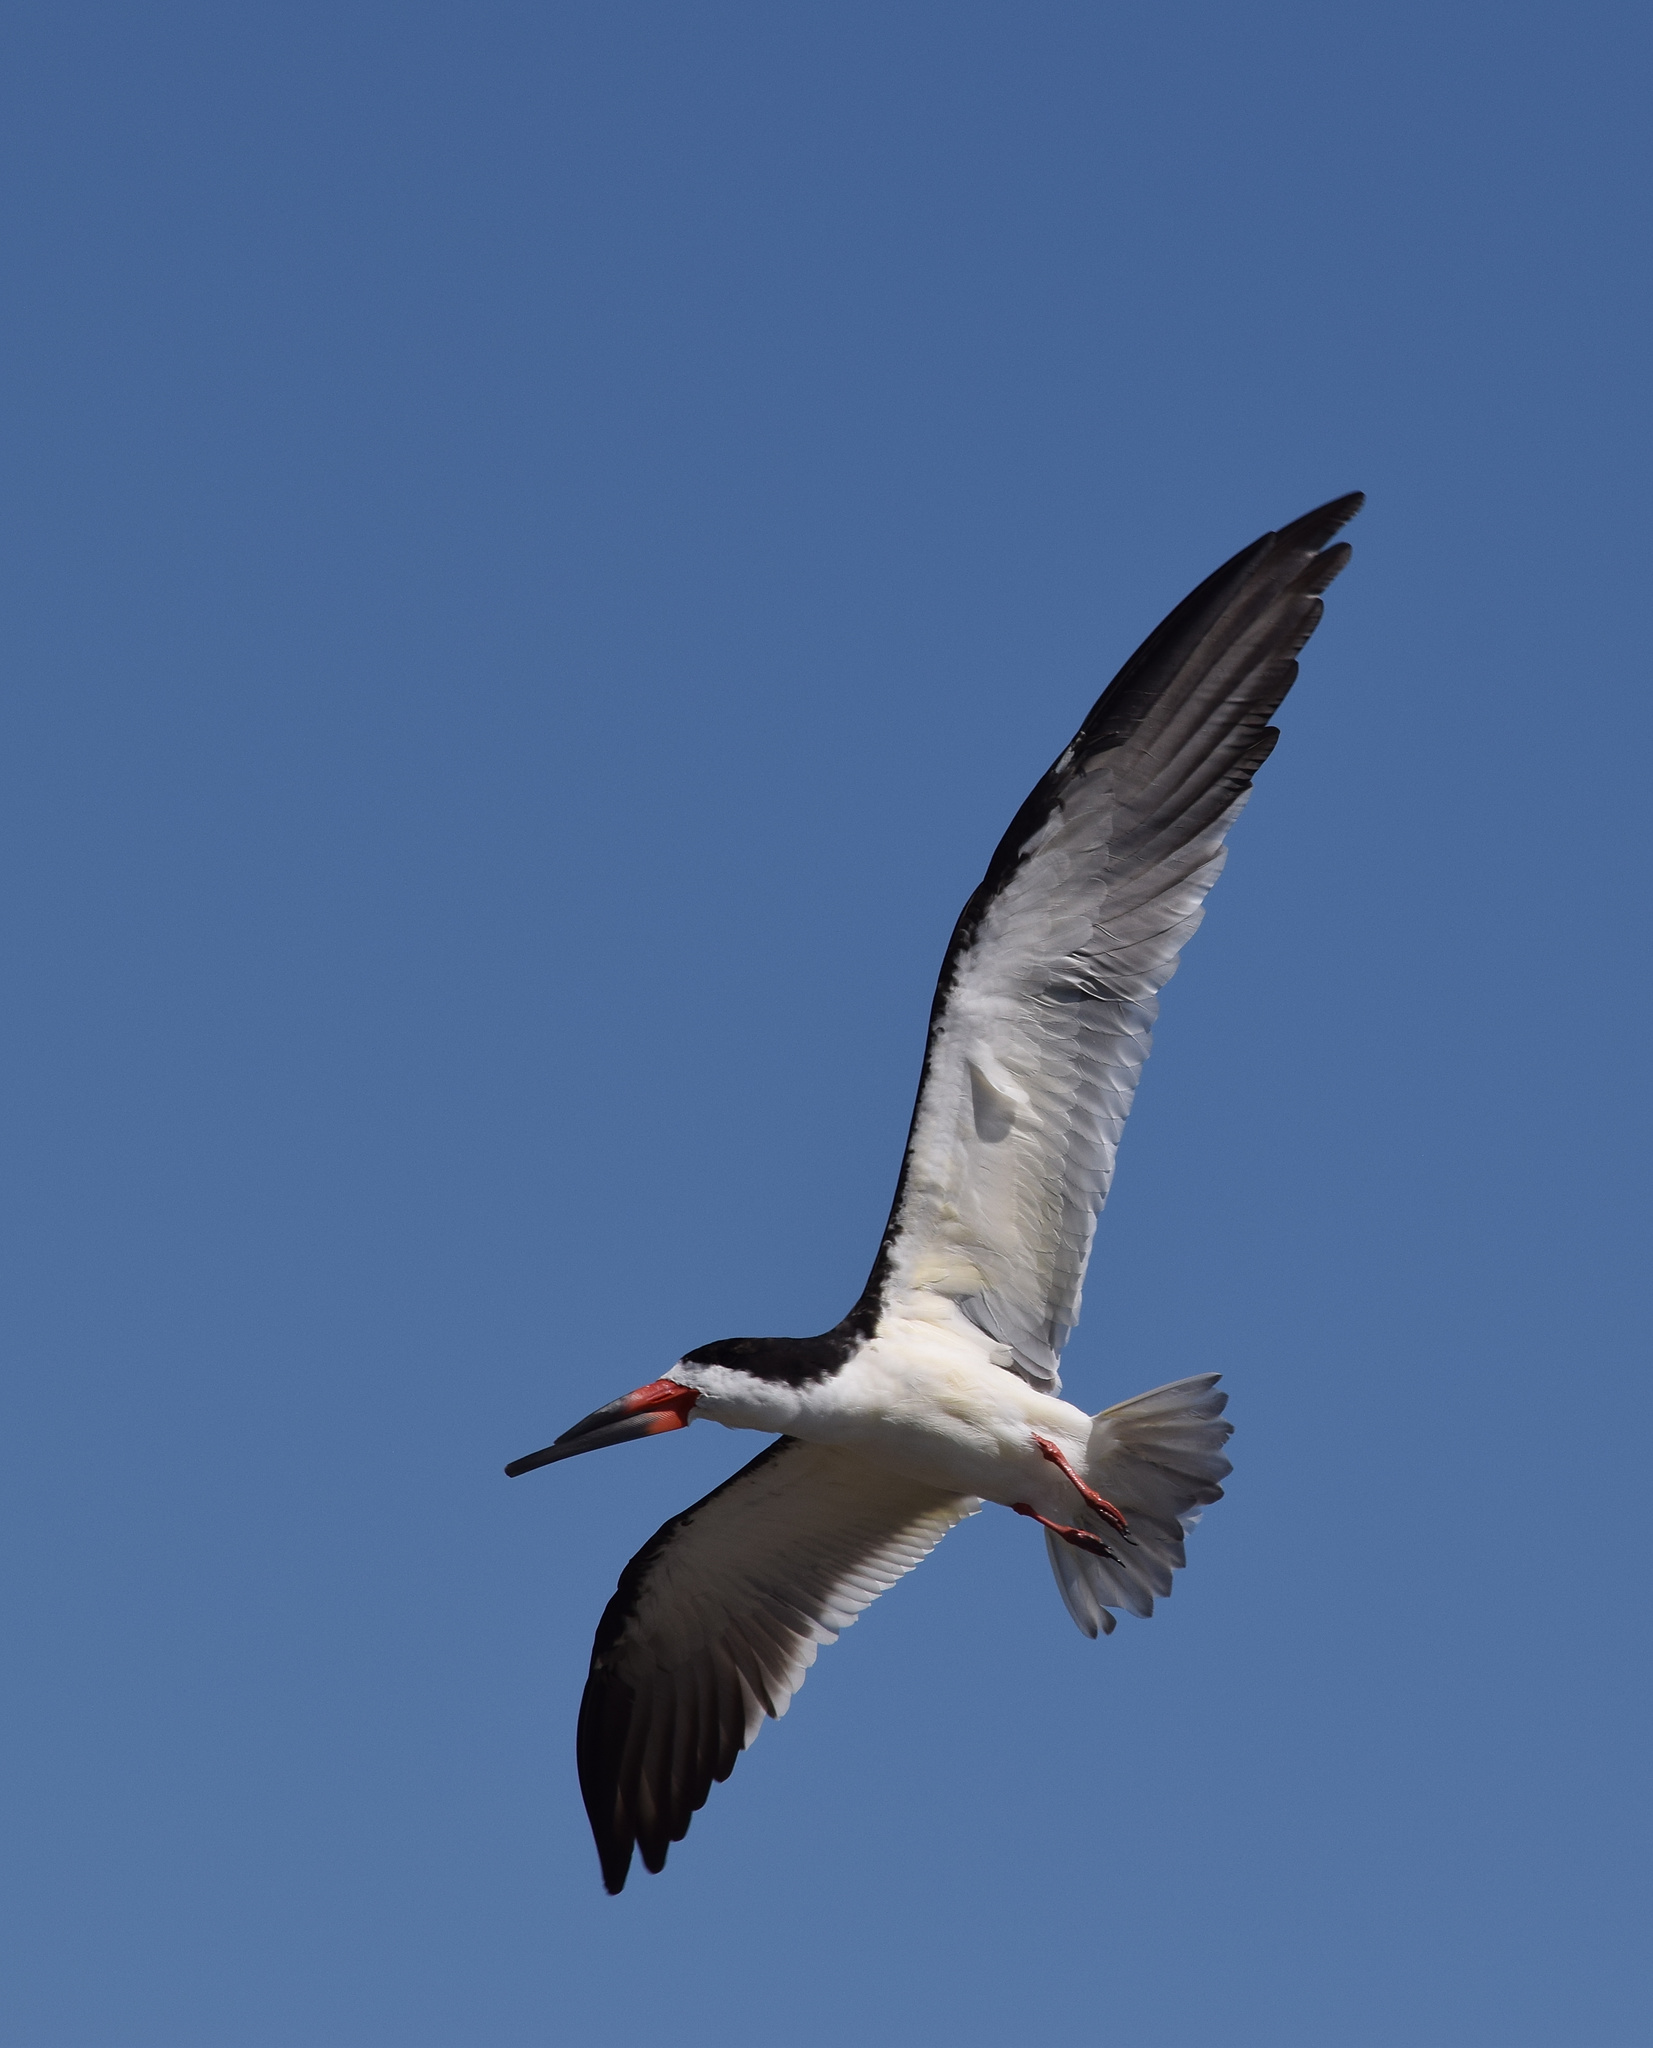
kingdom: Animalia
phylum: Chordata
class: Aves
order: Charadriiformes
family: Laridae
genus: Rynchops
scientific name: Rynchops niger
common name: Black skimmer
